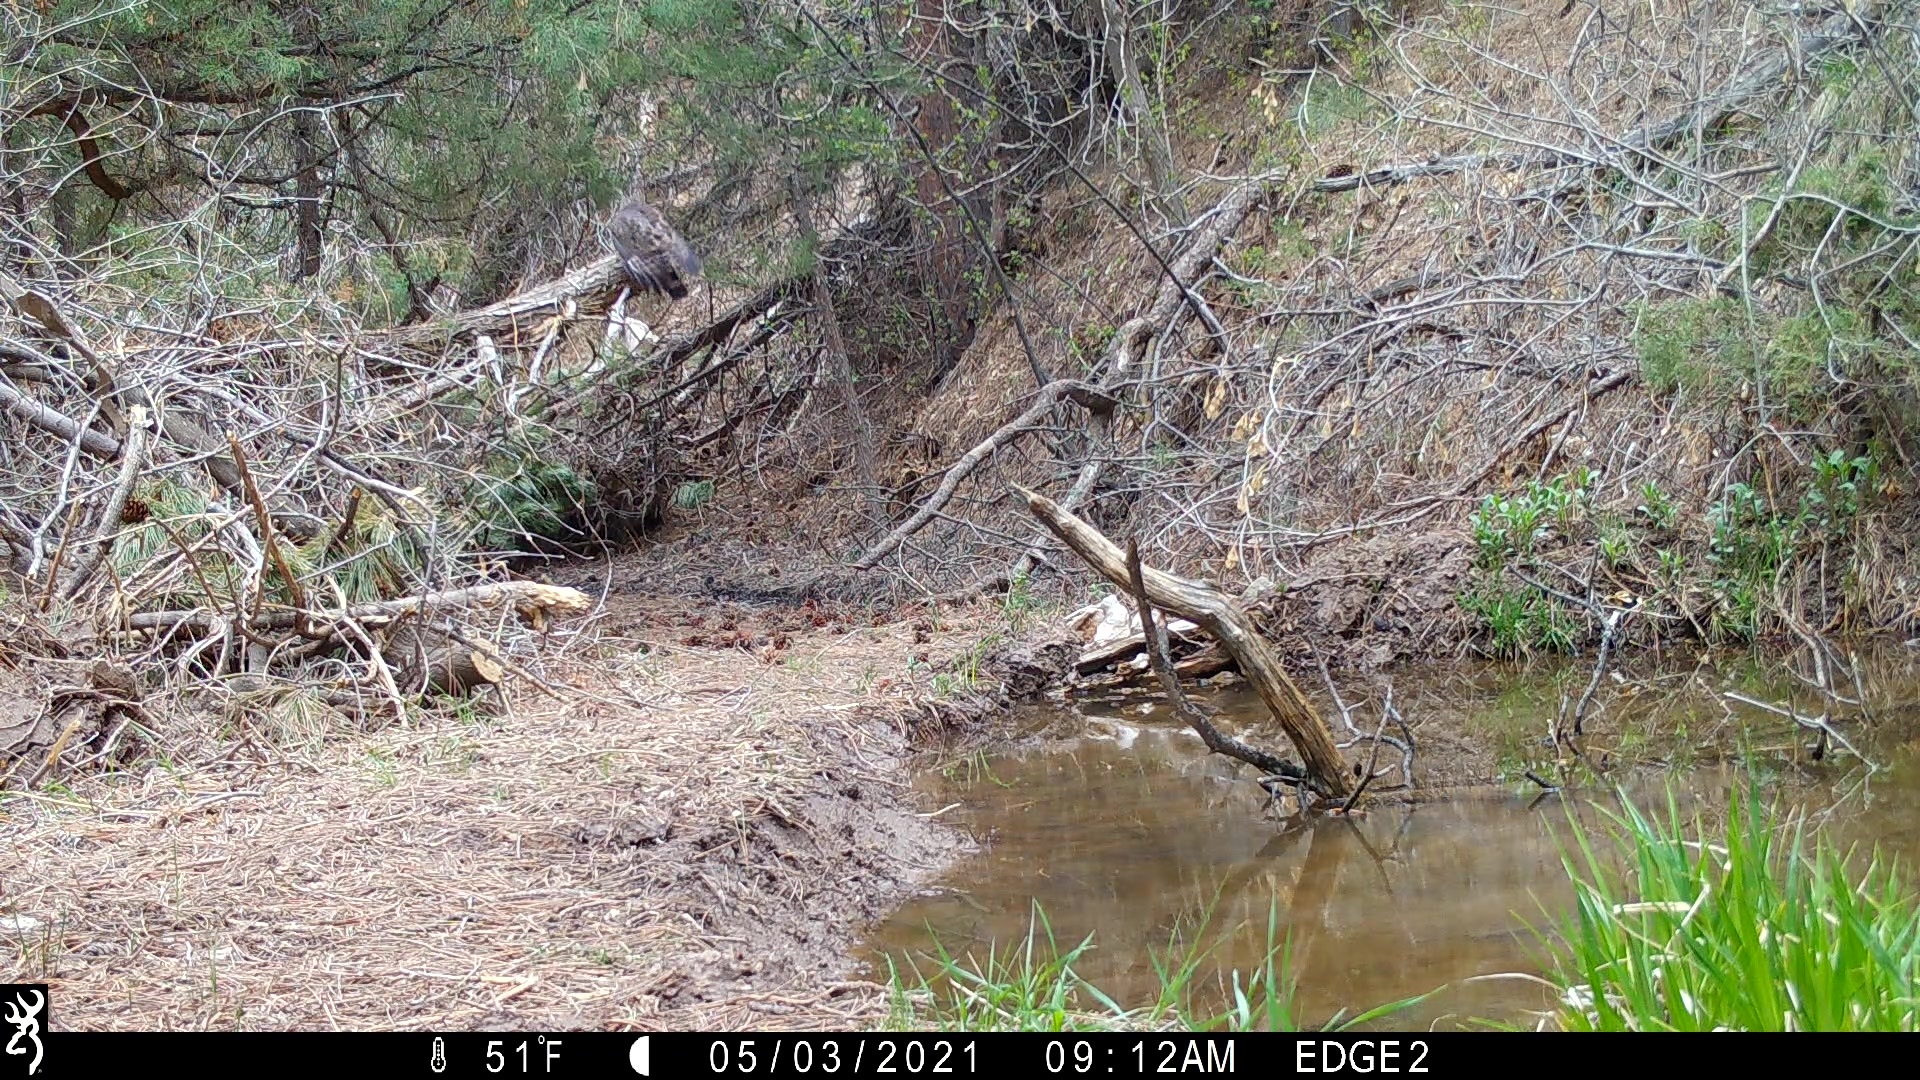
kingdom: Animalia
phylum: Chordata
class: Aves
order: Accipitriformes
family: Accipitridae
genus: Buteo
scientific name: Buteo platypterus
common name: Broad-winged hawk
